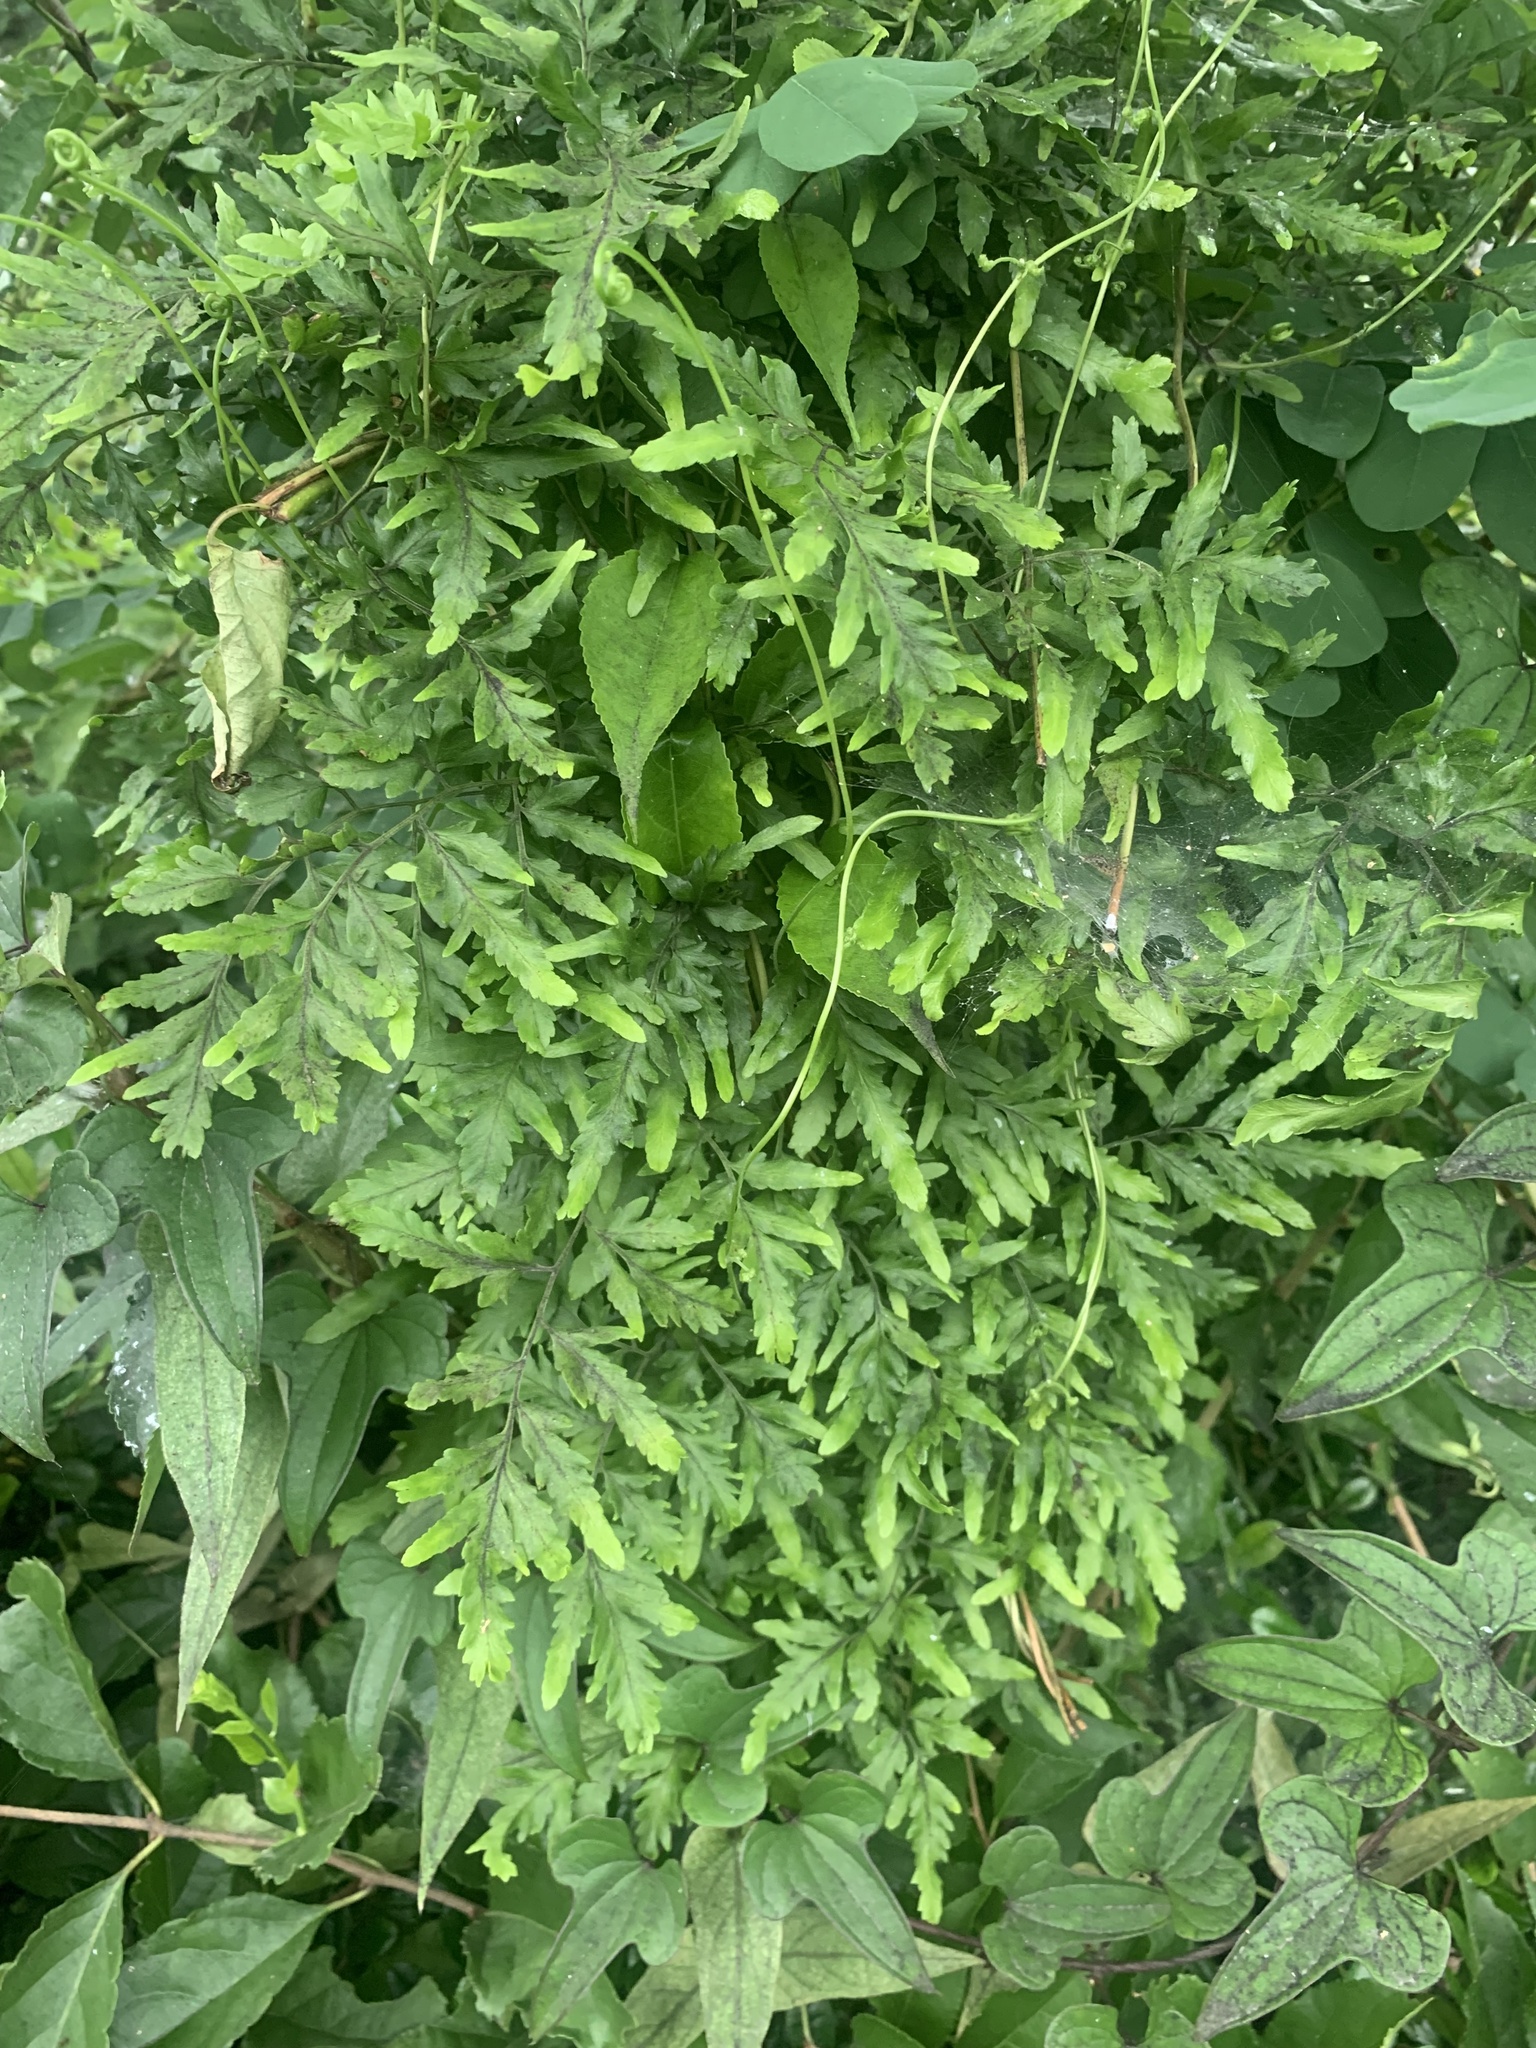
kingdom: Plantae
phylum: Tracheophyta
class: Polypodiopsida
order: Schizaeales
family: Lygodiaceae
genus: Lygodium
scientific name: Lygodium japonicum
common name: Japanese climbing fern
